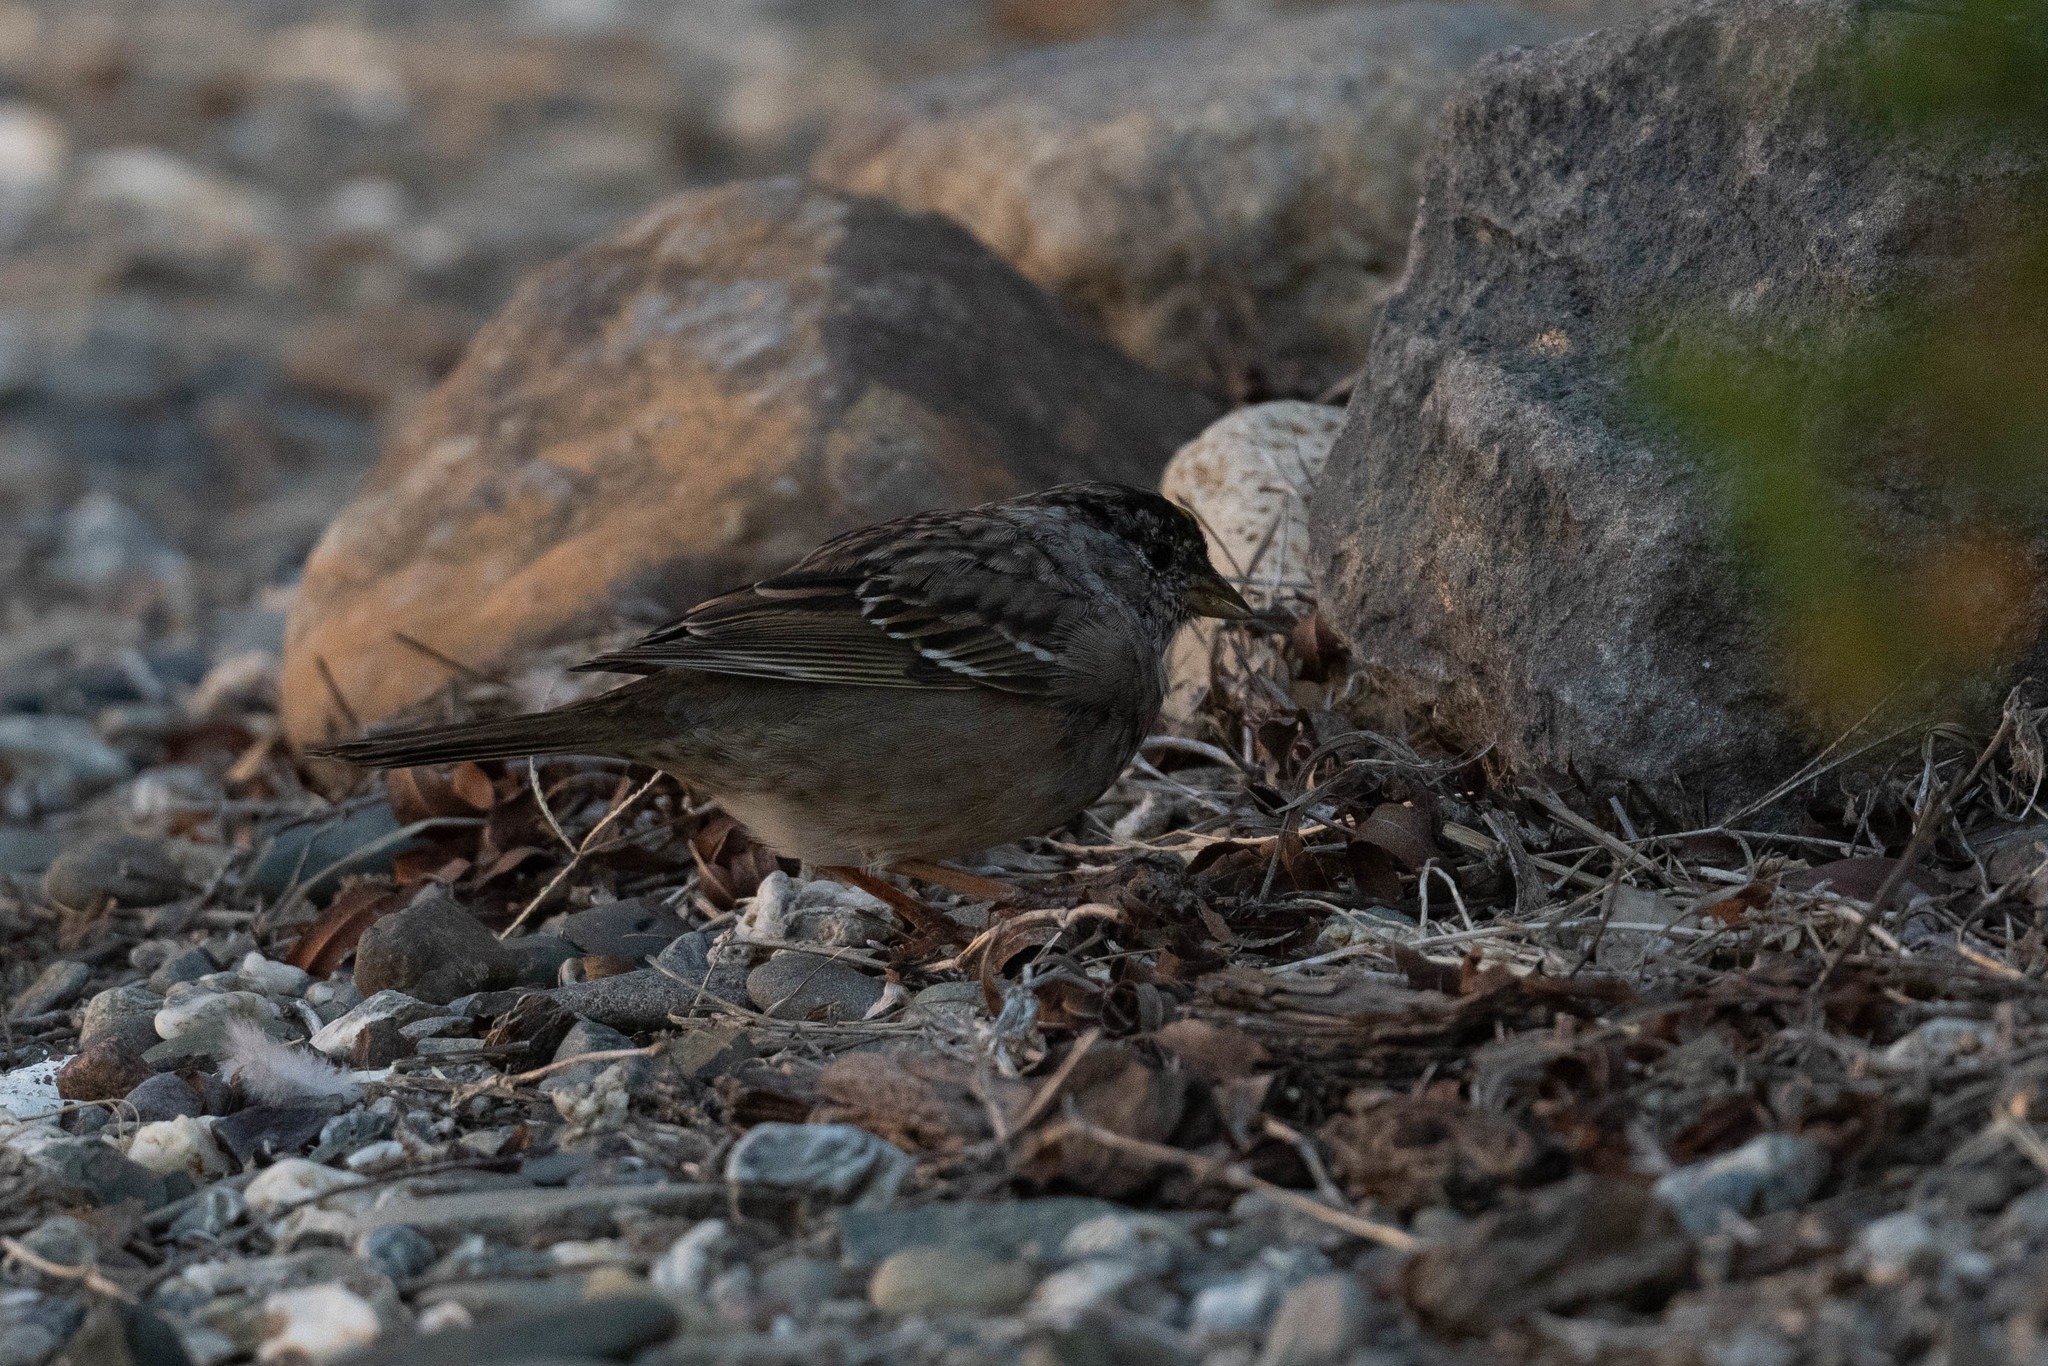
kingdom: Animalia
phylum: Chordata
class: Aves
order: Passeriformes
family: Passerellidae
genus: Zonotrichia
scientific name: Zonotrichia atricapilla
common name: Golden-crowned sparrow
